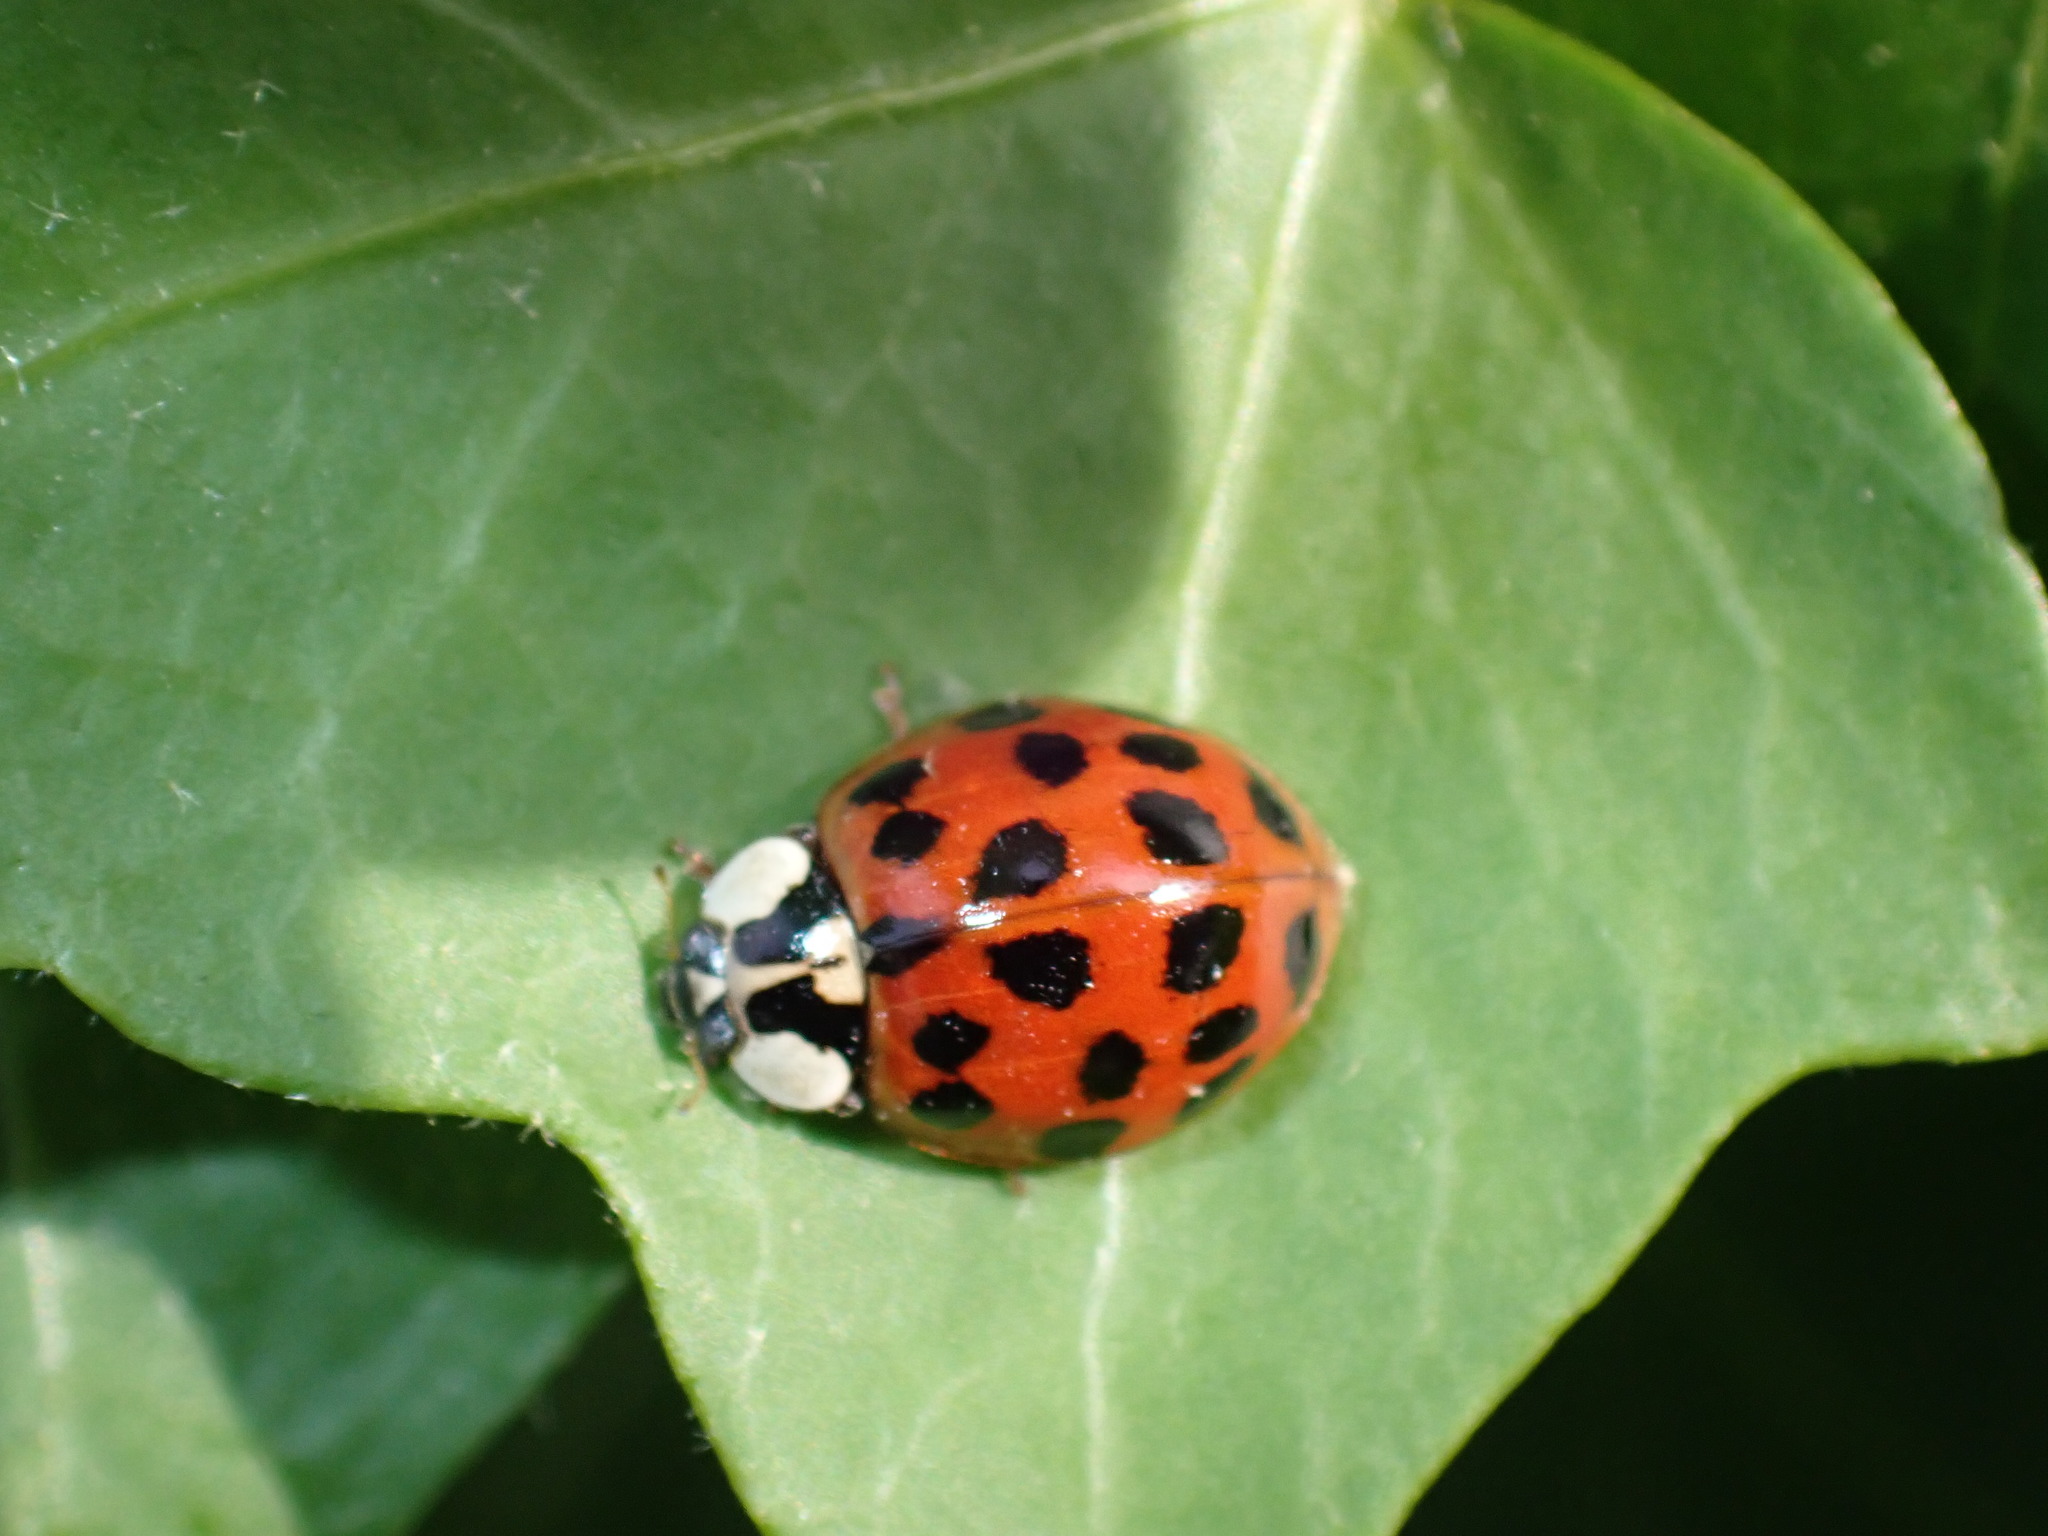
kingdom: Animalia
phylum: Arthropoda
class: Insecta
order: Coleoptera
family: Coccinellidae
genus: Harmonia
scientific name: Harmonia axyridis
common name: Harlequin ladybird
